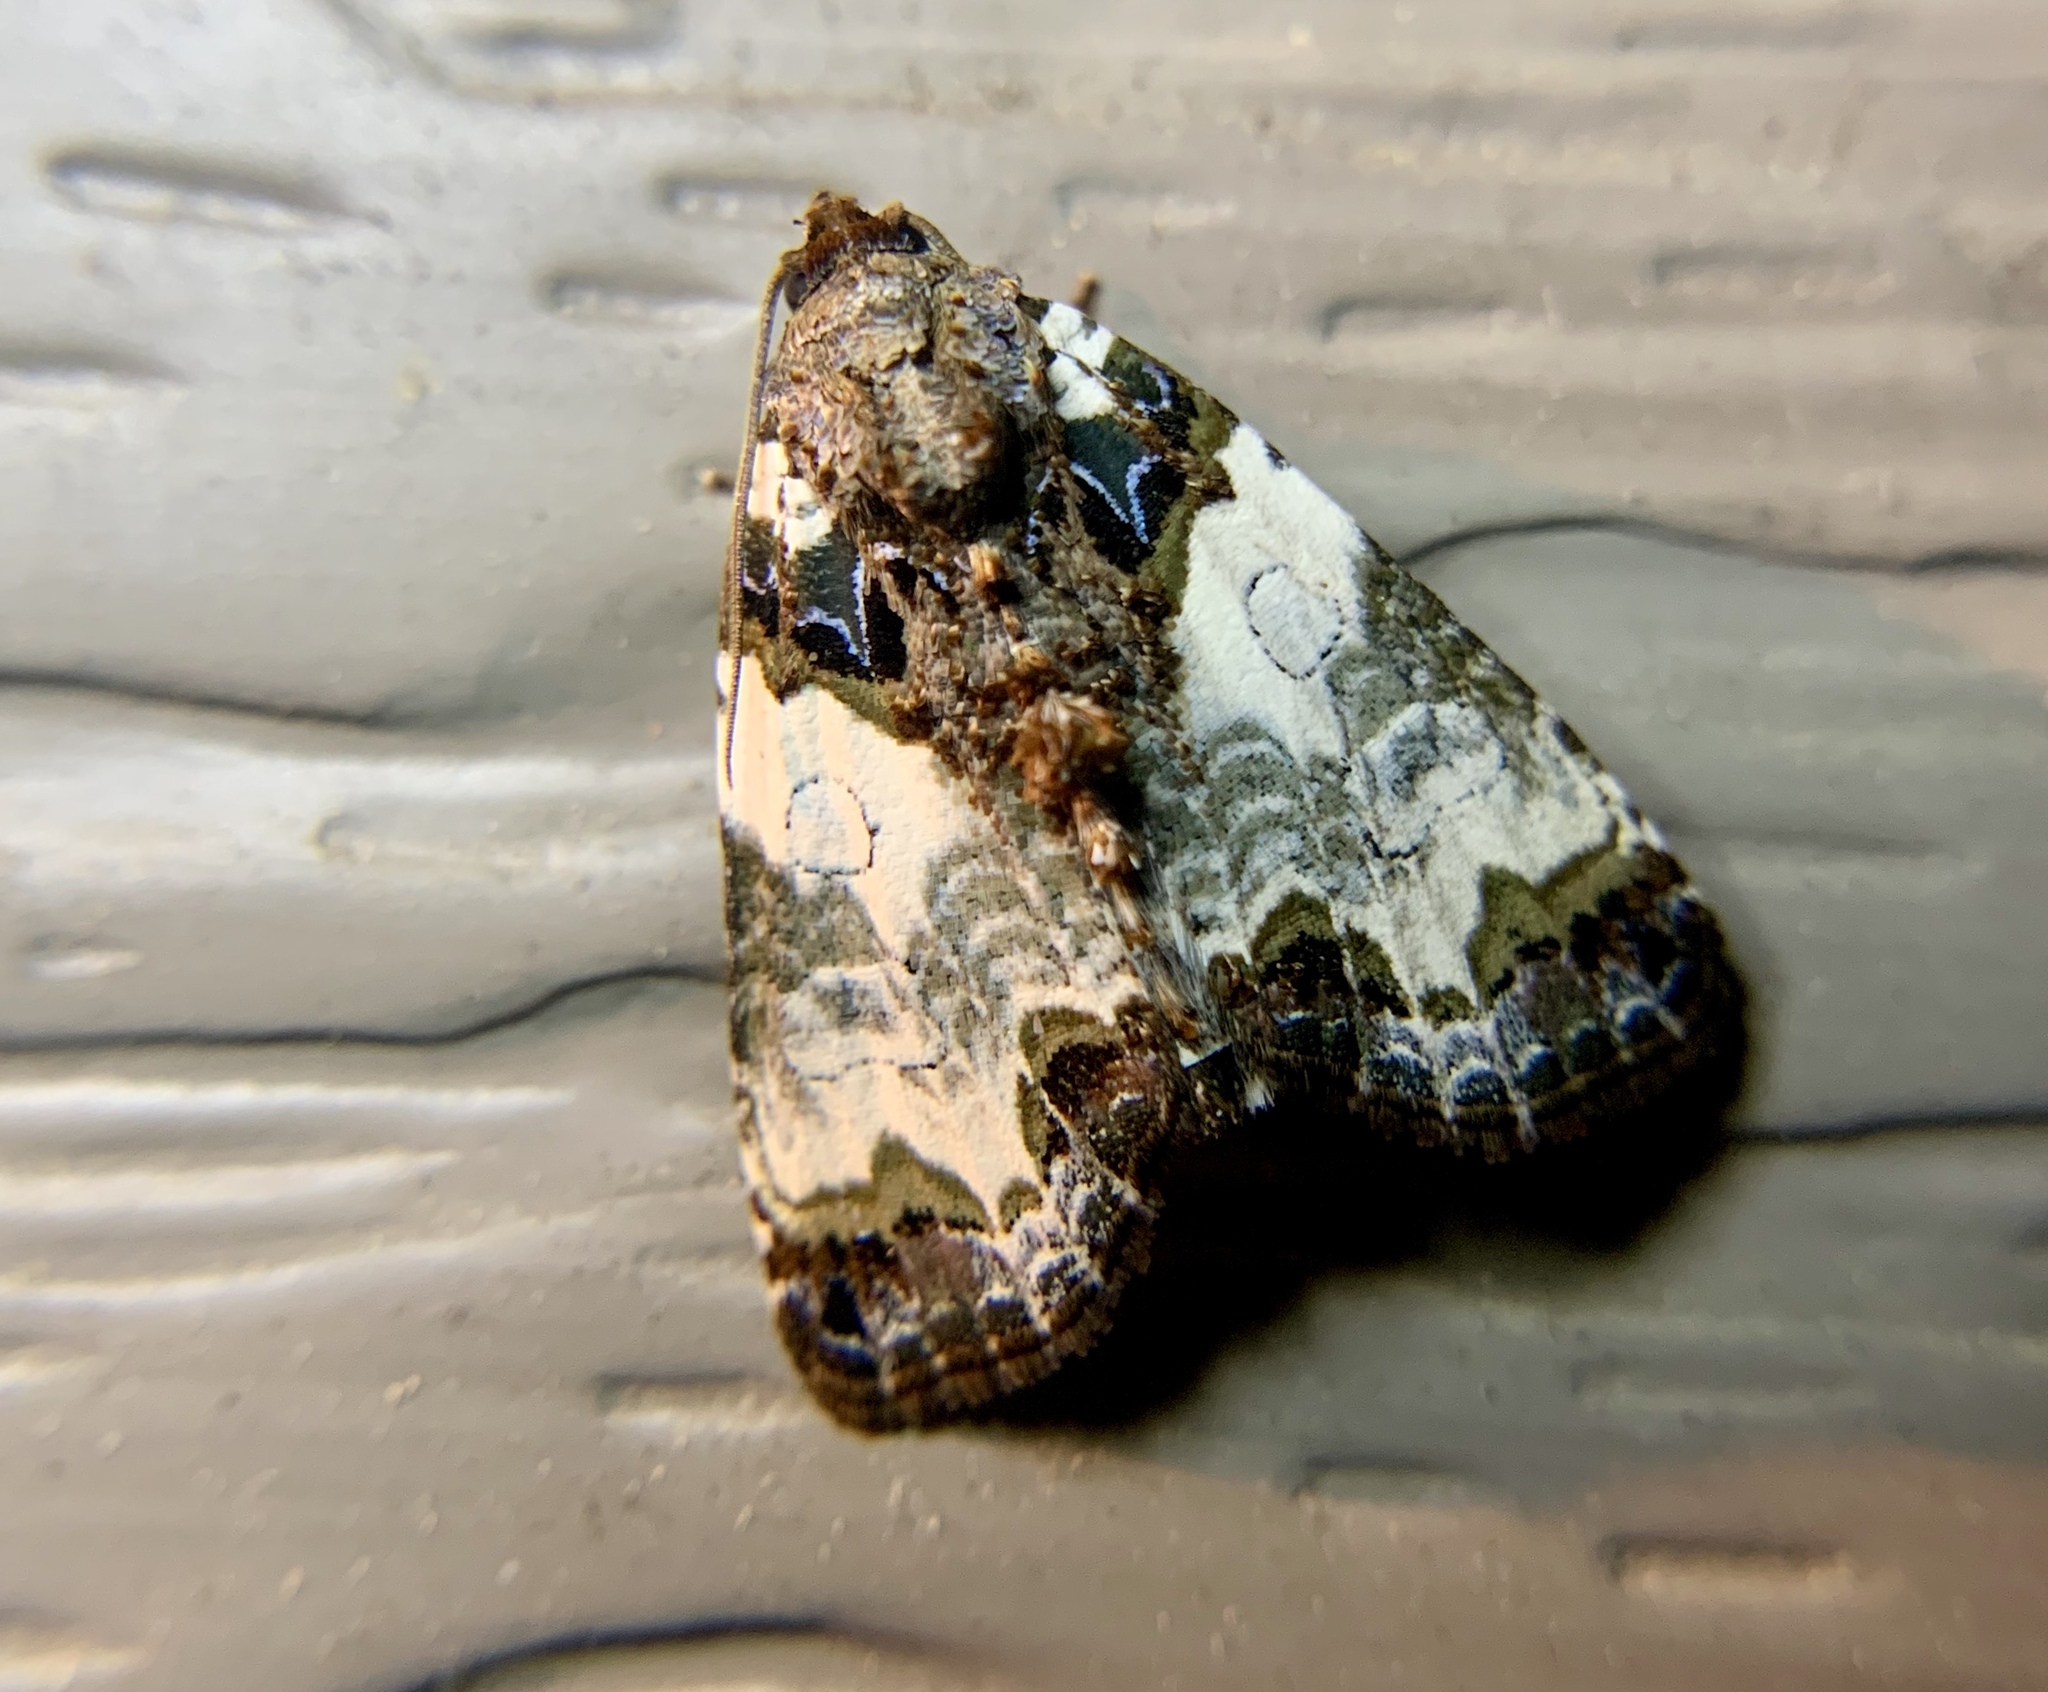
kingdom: Animalia
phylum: Arthropoda
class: Insecta
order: Lepidoptera
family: Noctuidae
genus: Cerma
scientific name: Cerma cerintha
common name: Tufted bird-dropping moth
